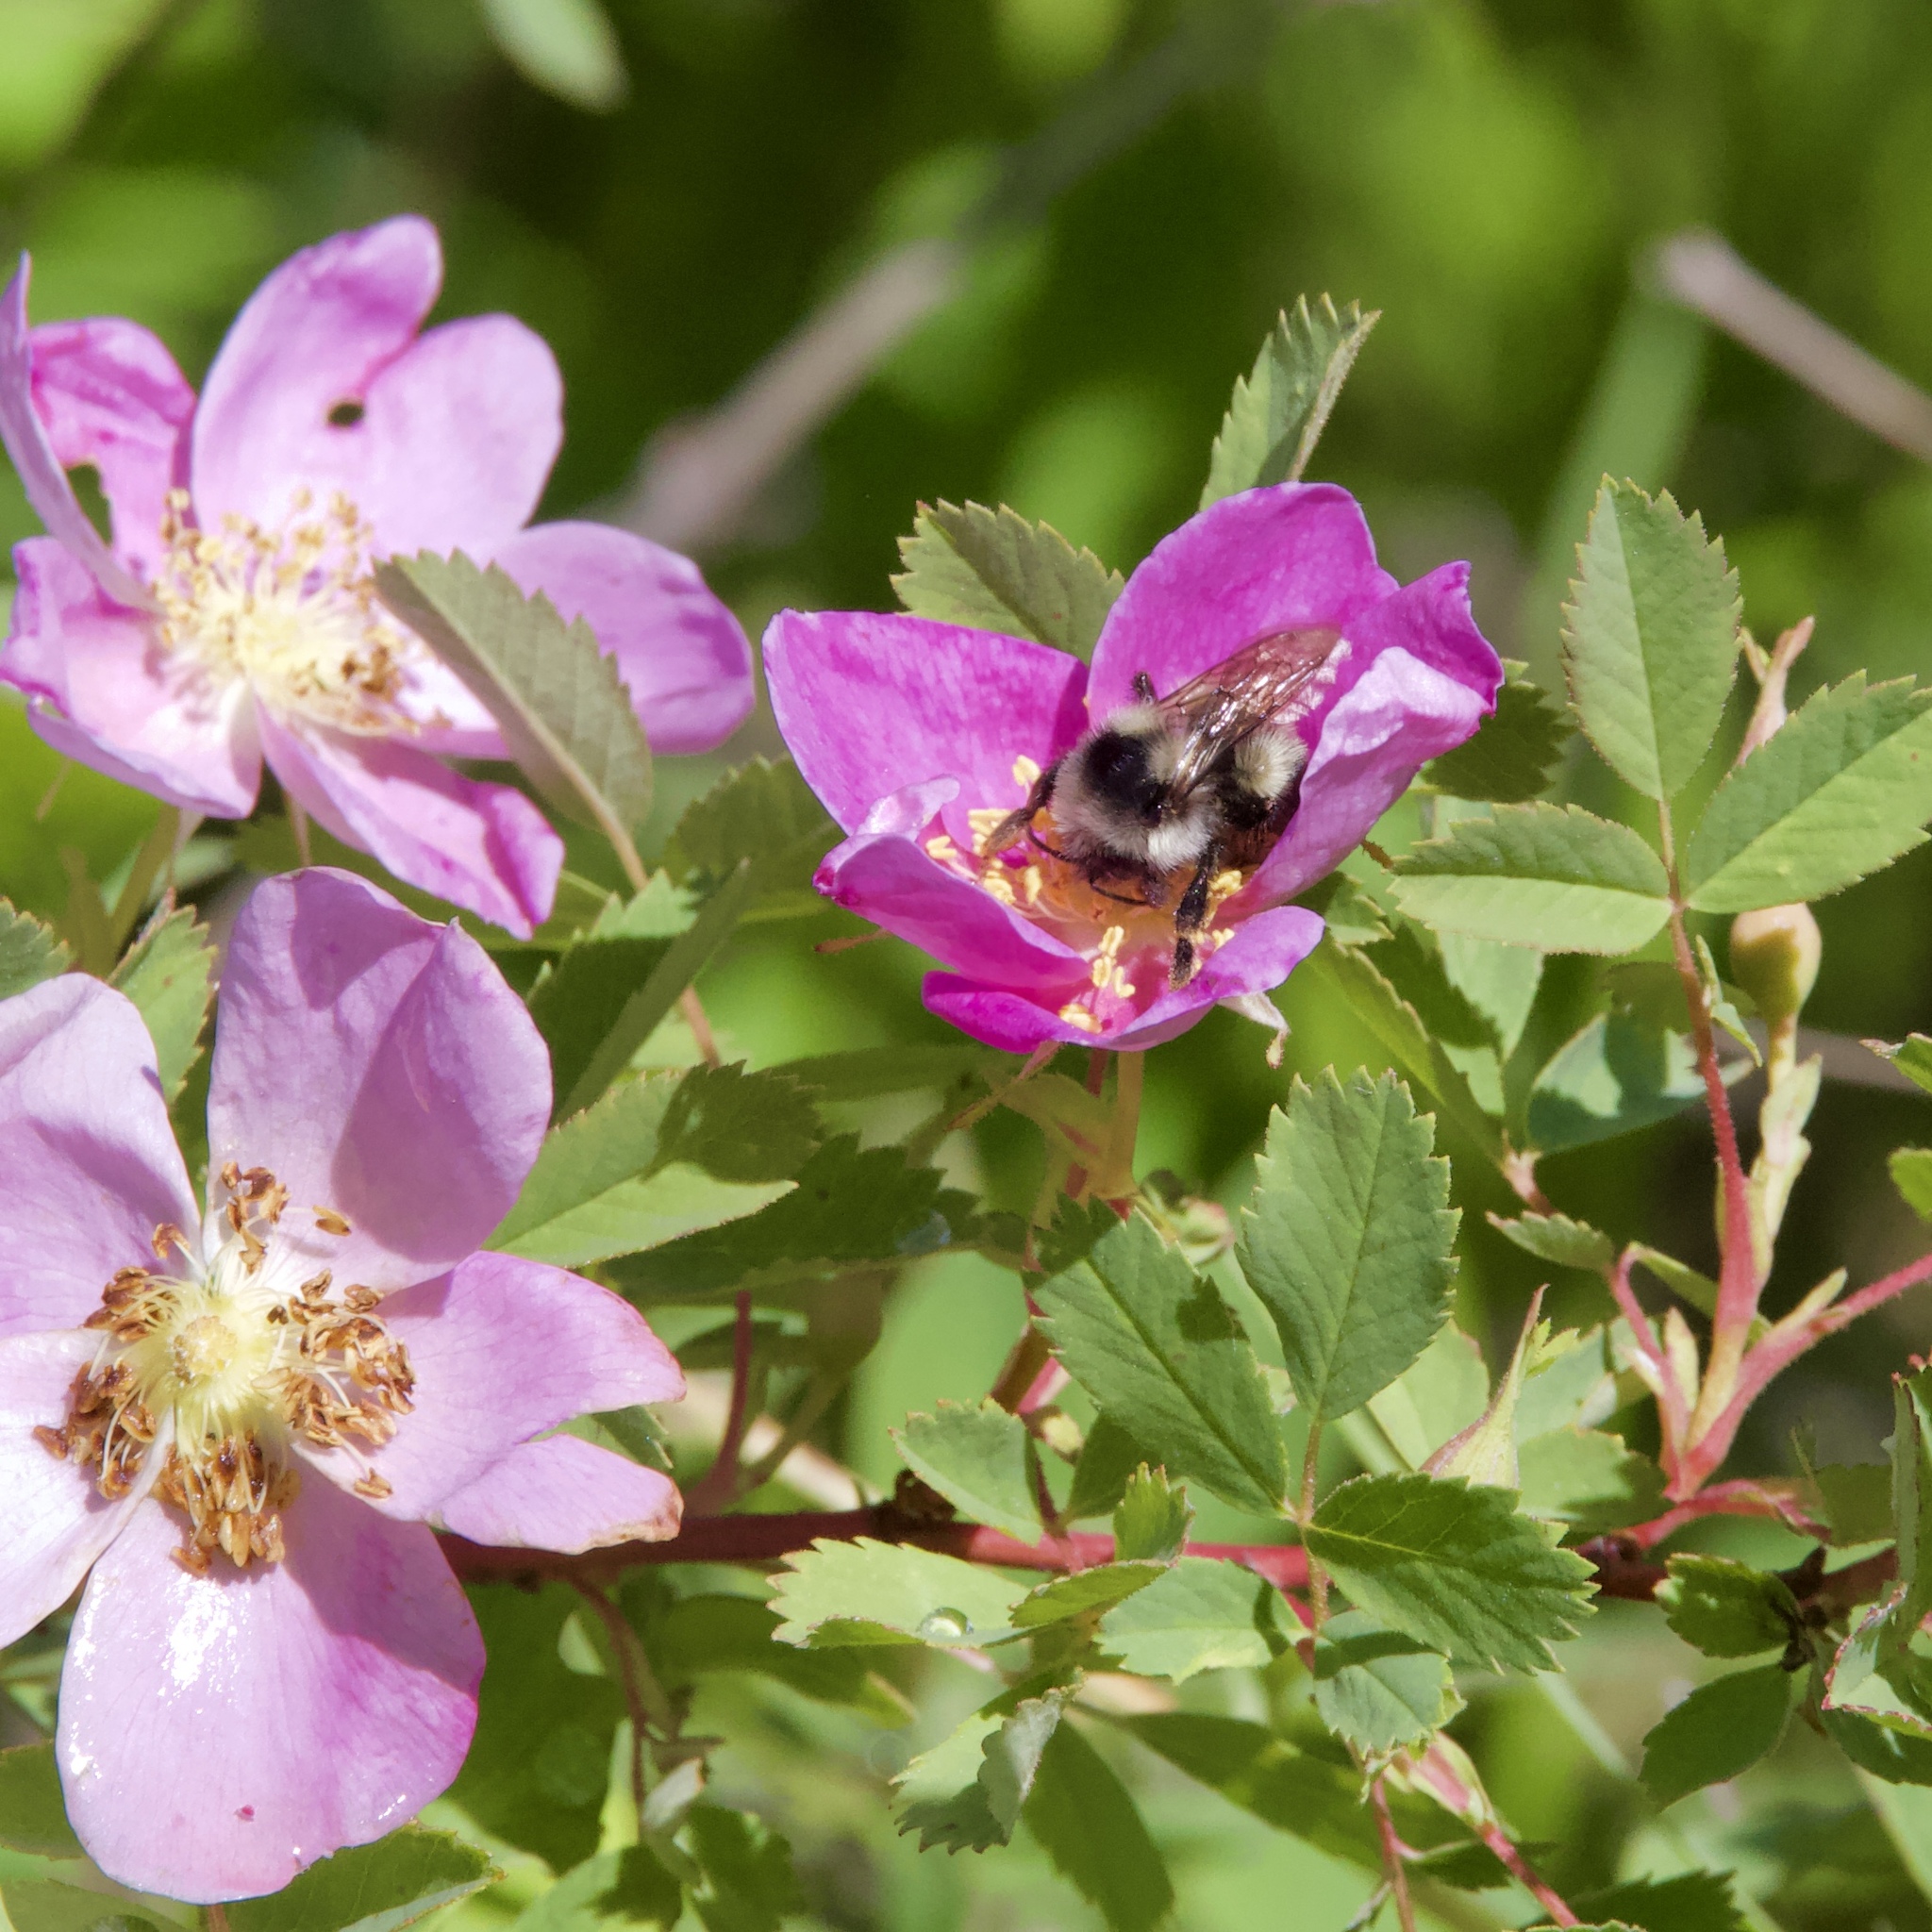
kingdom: Animalia
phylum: Arthropoda
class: Insecta
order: Hymenoptera
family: Apidae
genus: Bombus
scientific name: Bombus vancouverensis
